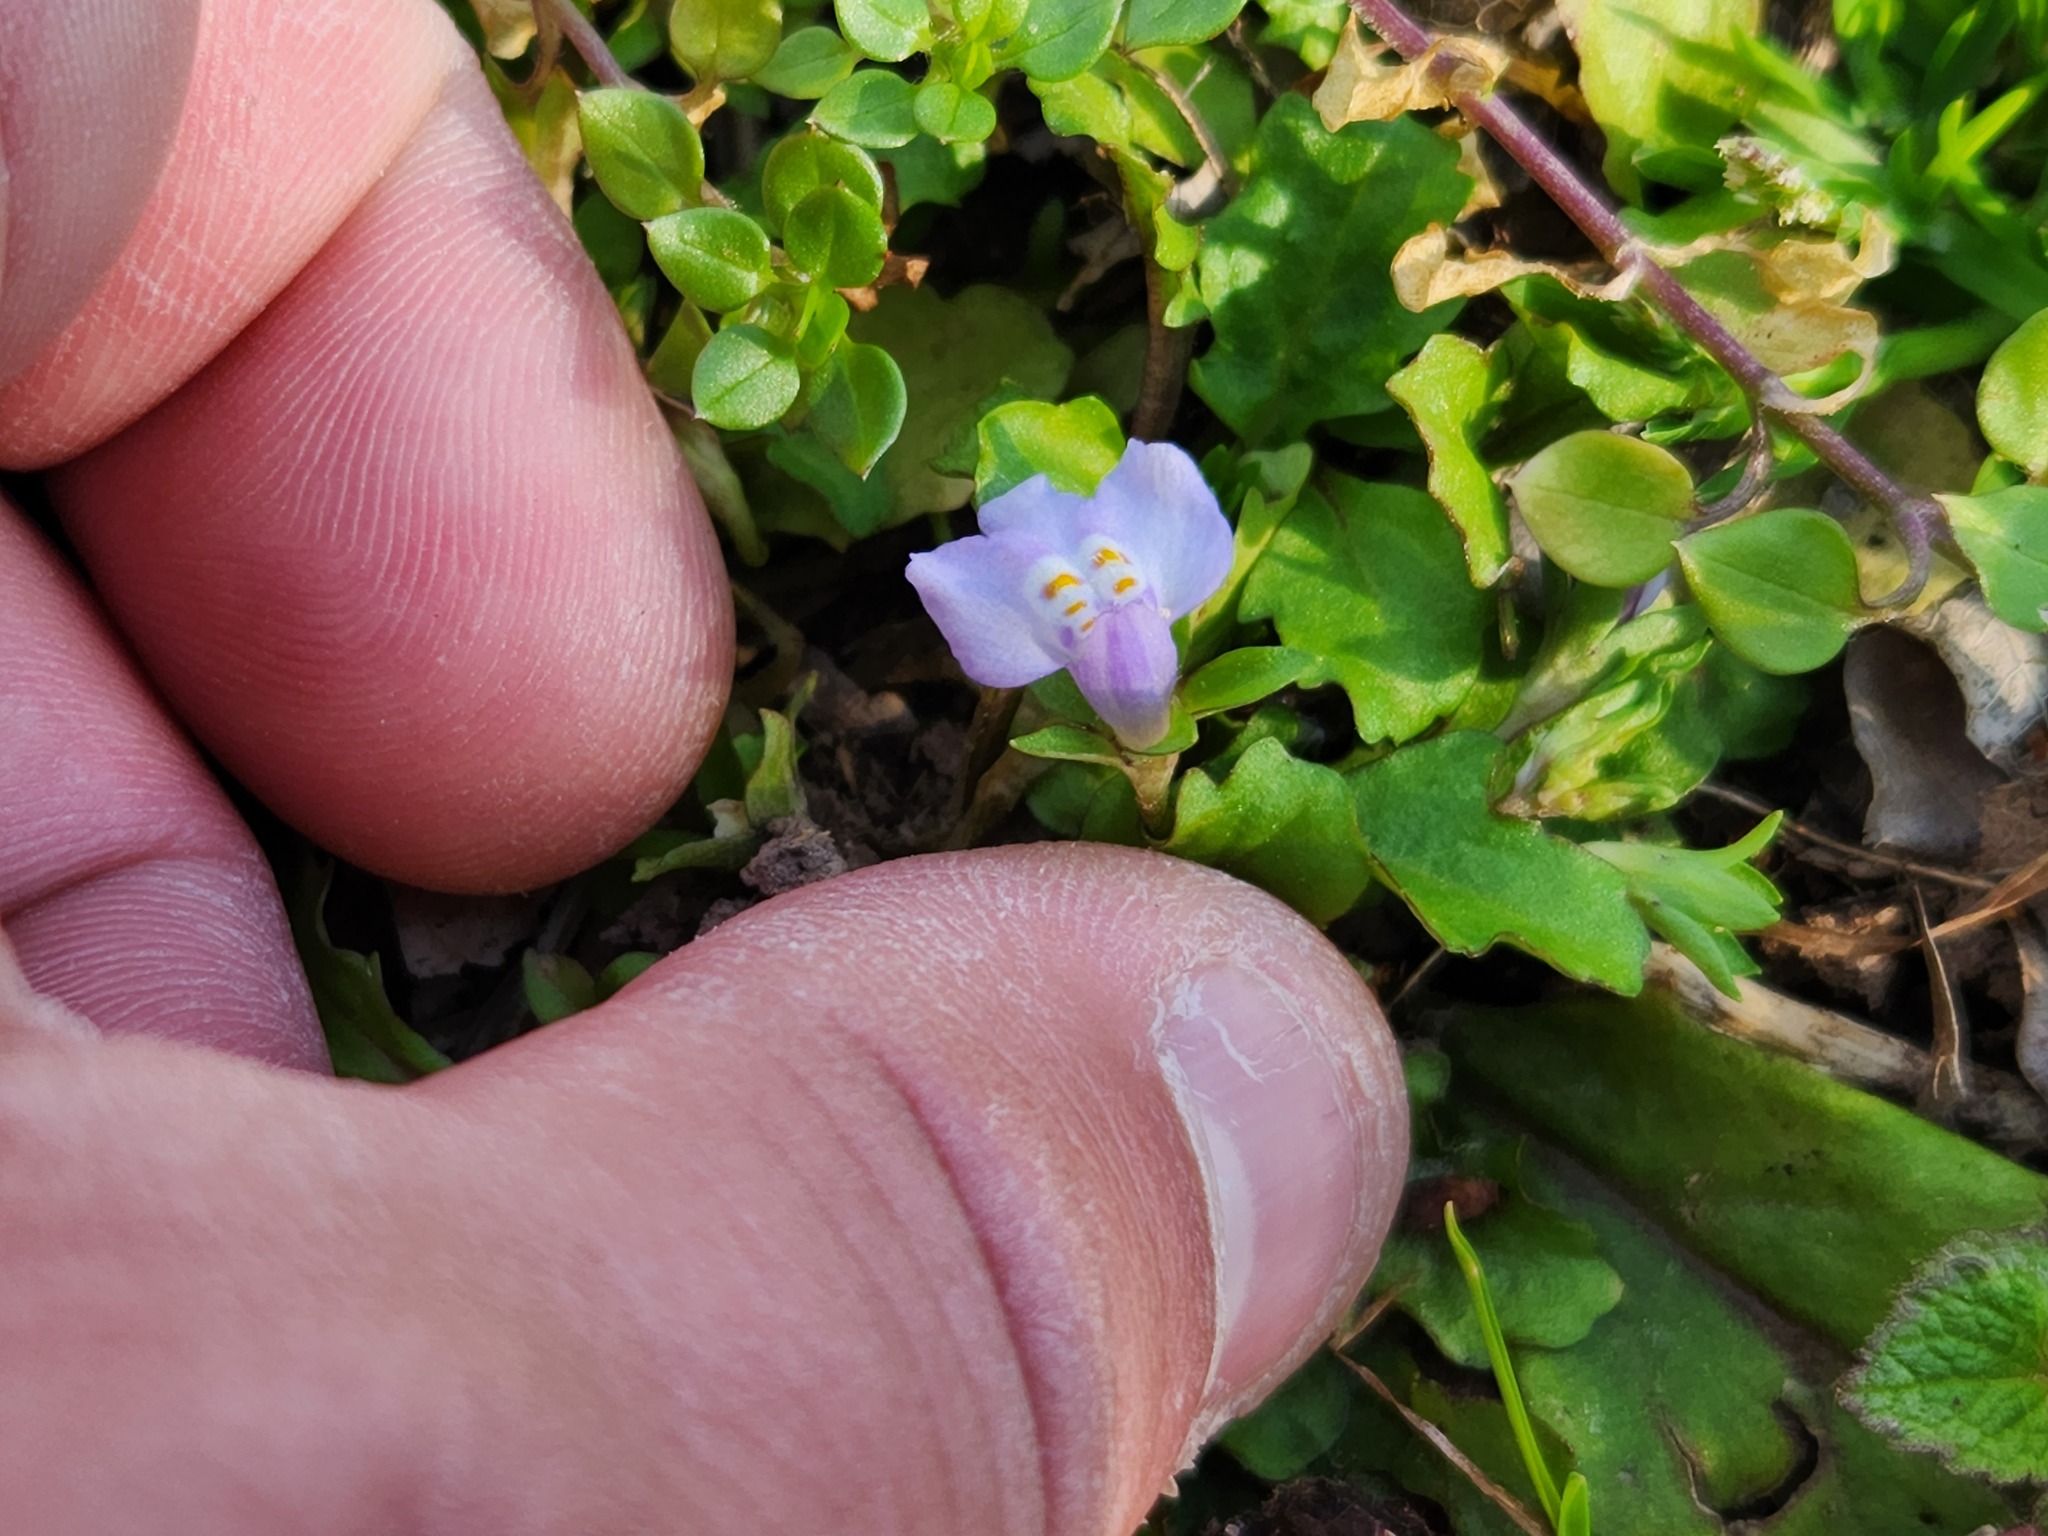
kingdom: Plantae
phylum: Tracheophyta
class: Magnoliopsida
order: Lamiales
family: Mazaceae
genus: Mazus
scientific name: Mazus pumilus
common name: Japanese mazus
